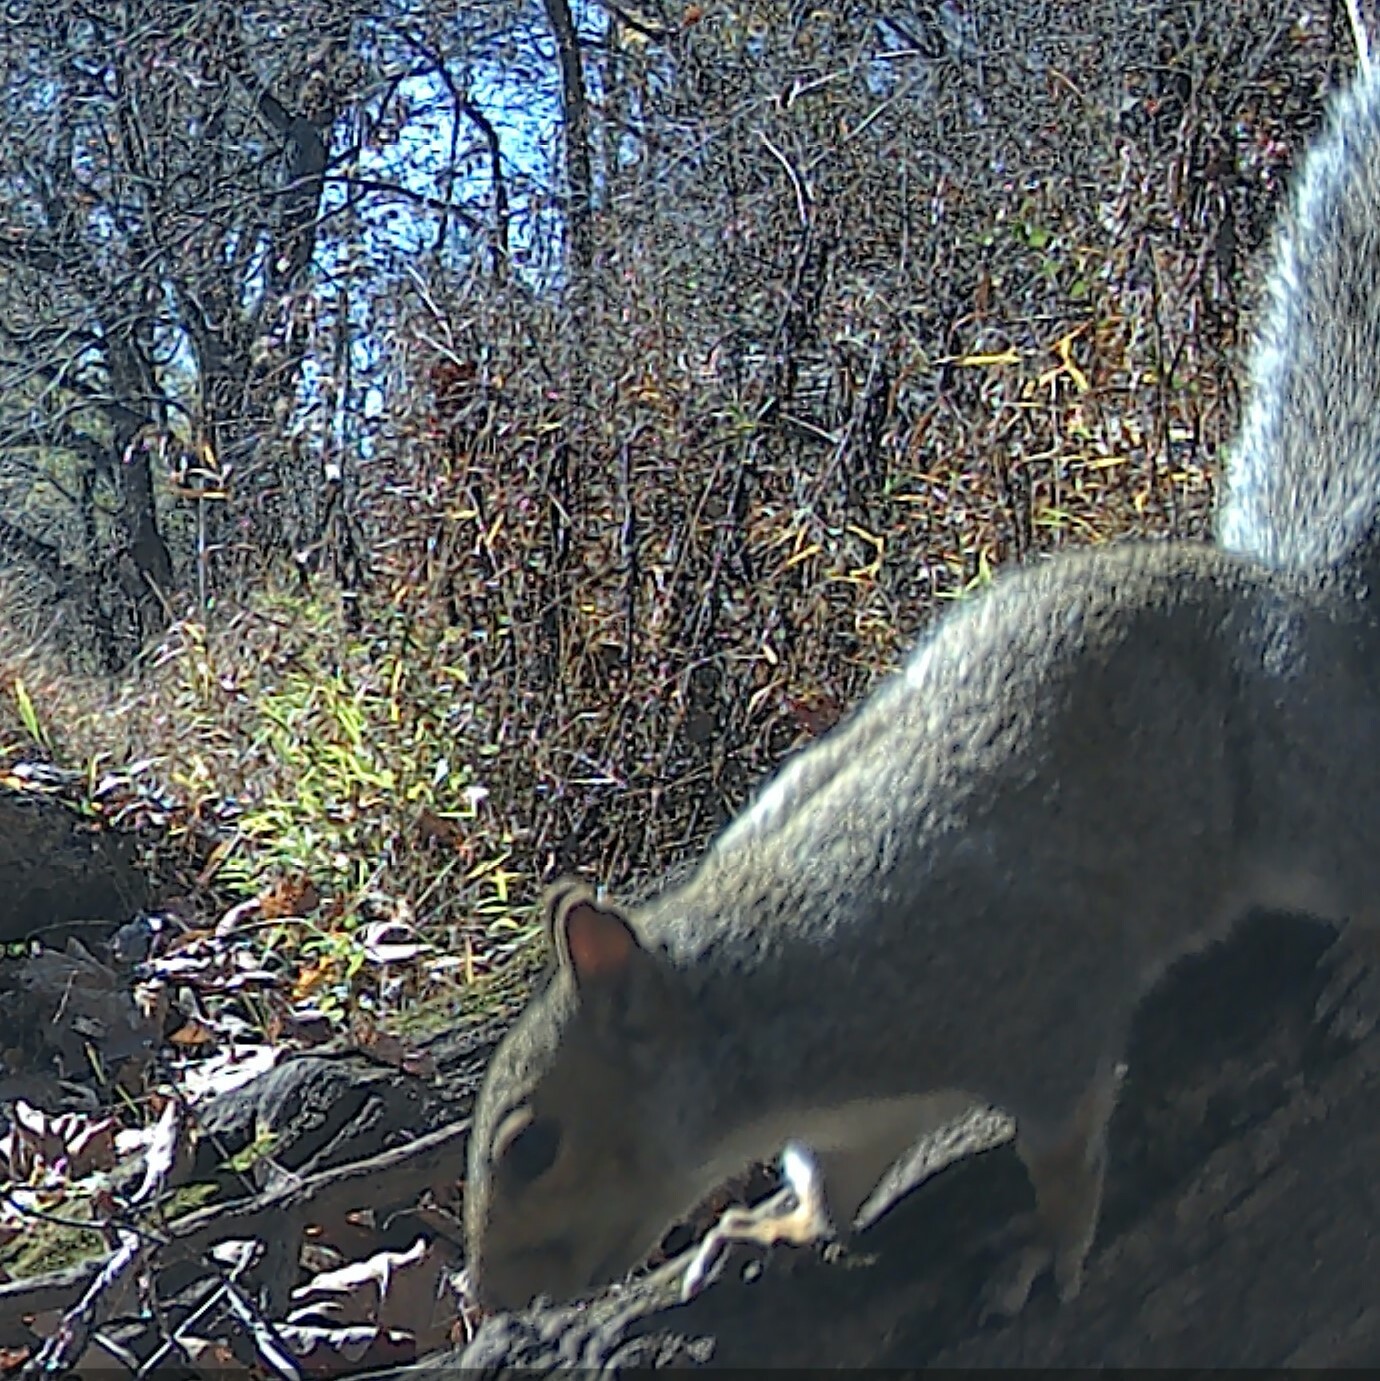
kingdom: Animalia
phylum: Chordata
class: Mammalia
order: Rodentia
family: Sciuridae
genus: Sciurus
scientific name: Sciurus carolinensis
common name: Eastern gray squirrel
